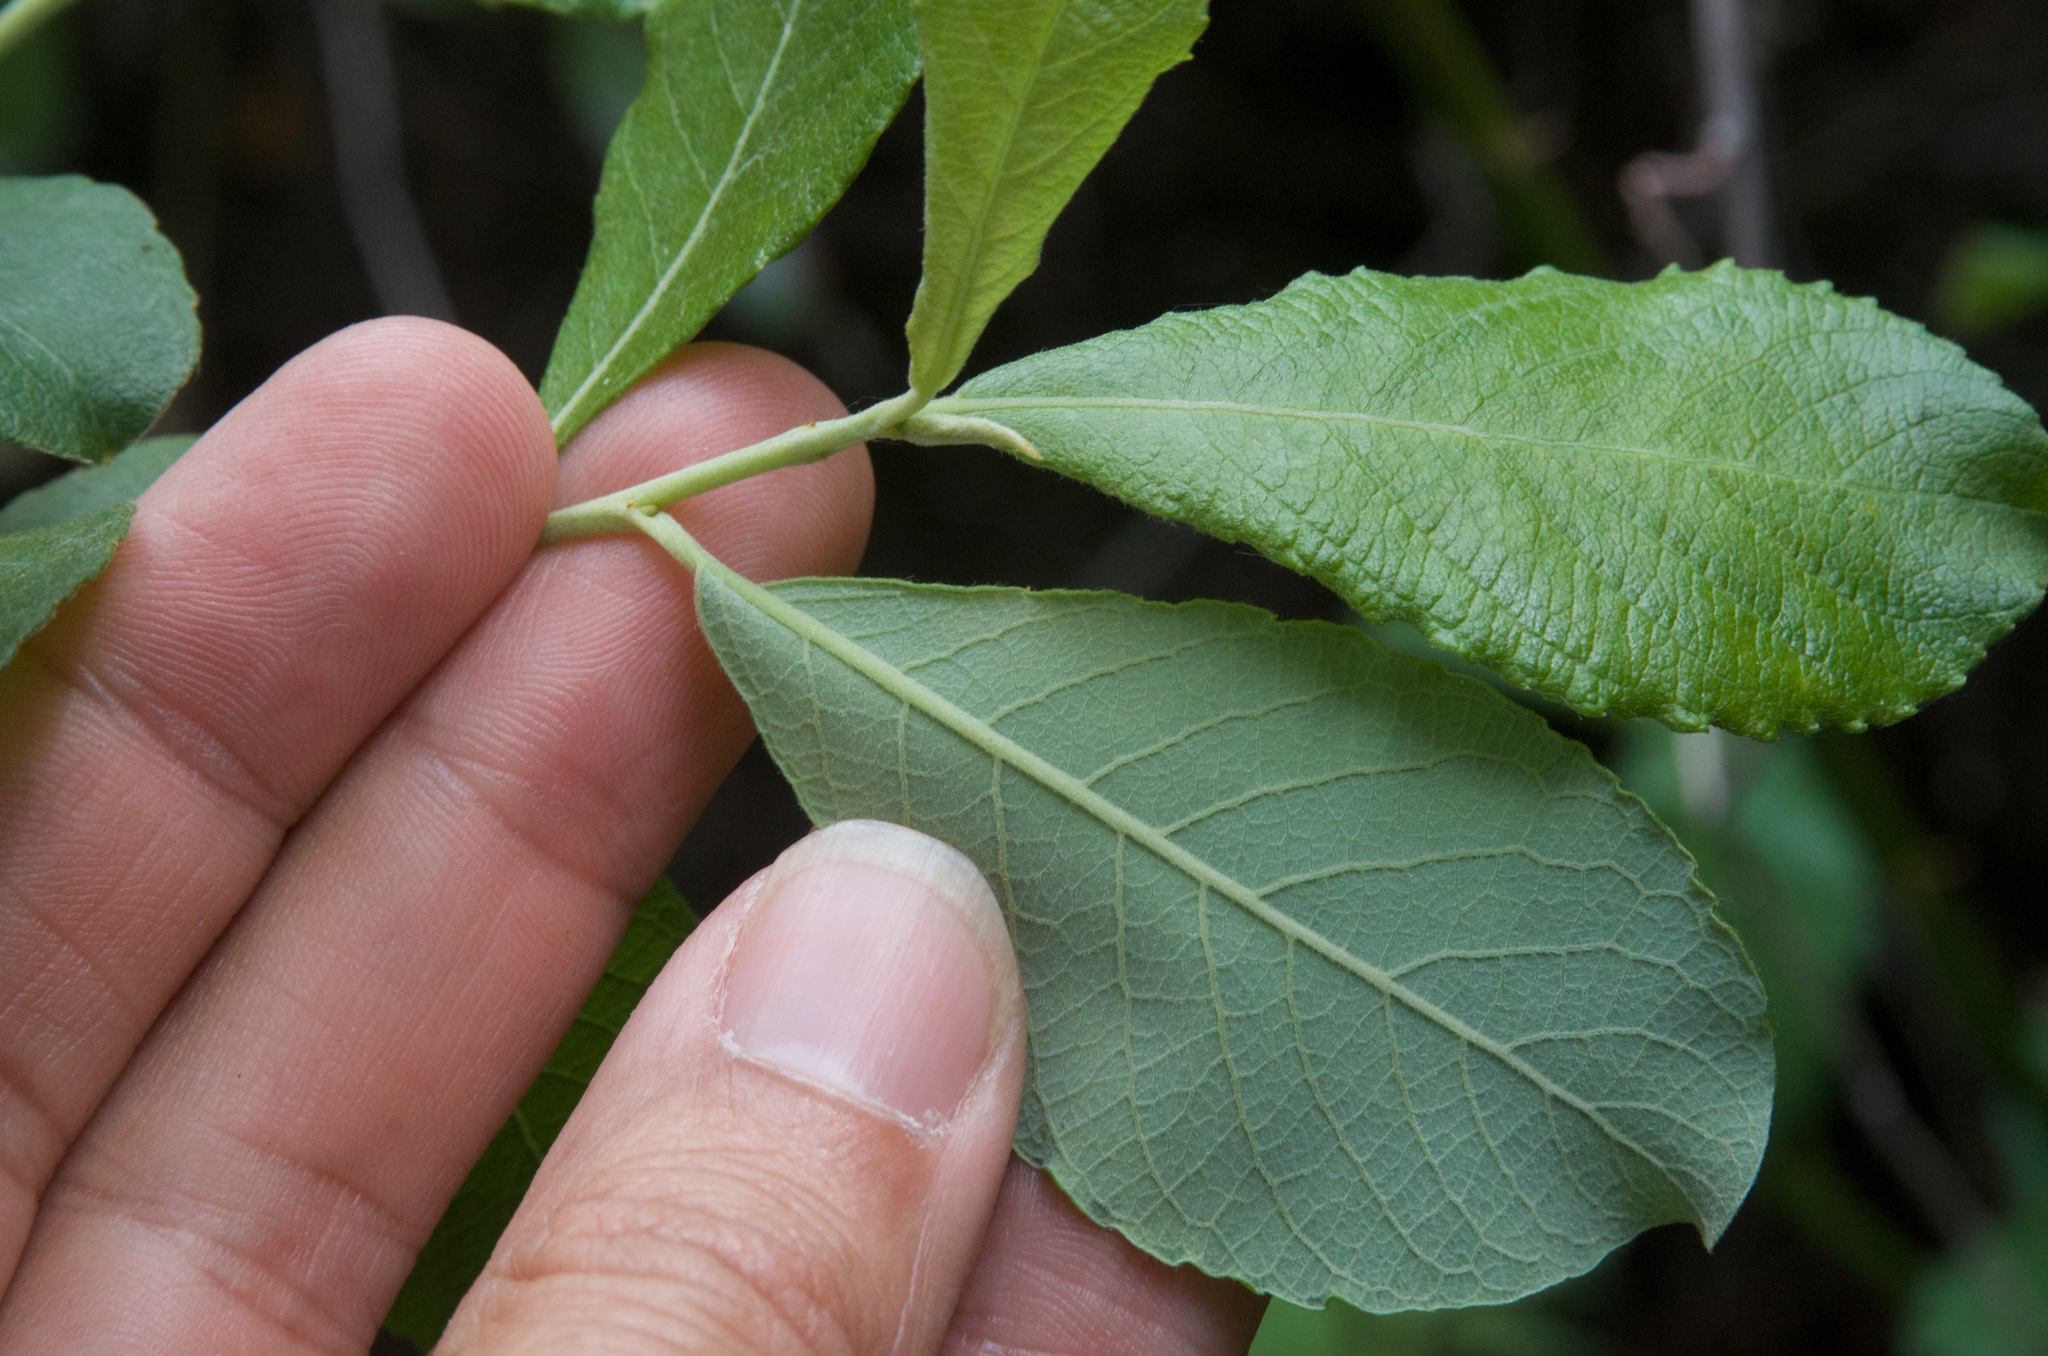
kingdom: Plantae
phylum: Tracheophyta
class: Magnoliopsida
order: Malpighiales
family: Salicaceae
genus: Salix
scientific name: Salix cinerea
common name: Common sallow
